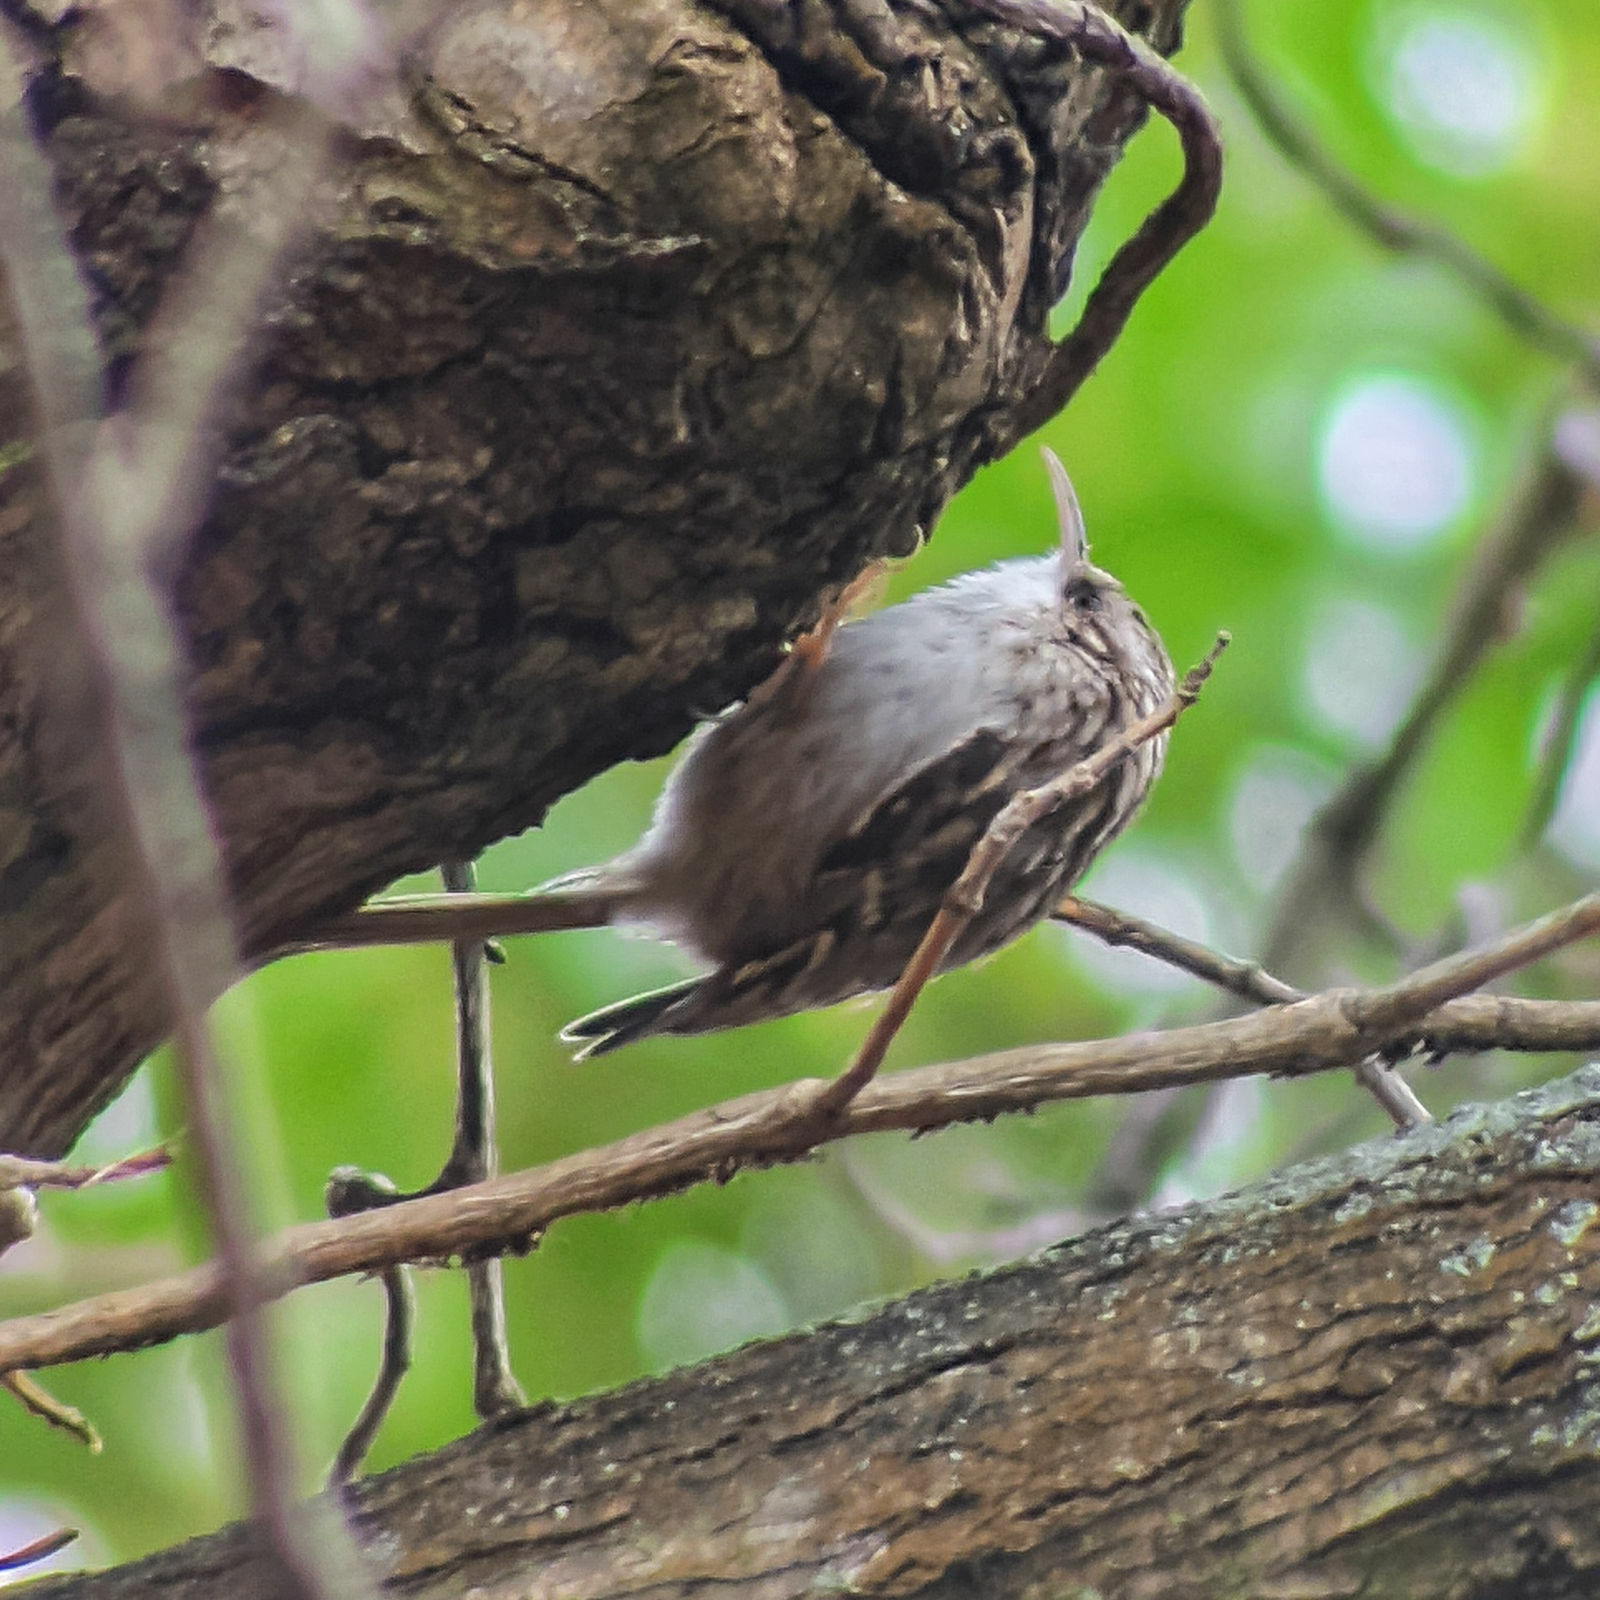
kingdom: Animalia
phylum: Chordata
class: Aves
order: Passeriformes
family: Certhiidae
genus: Certhia
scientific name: Certhia brachydactyla
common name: Short-toed treecreeper
